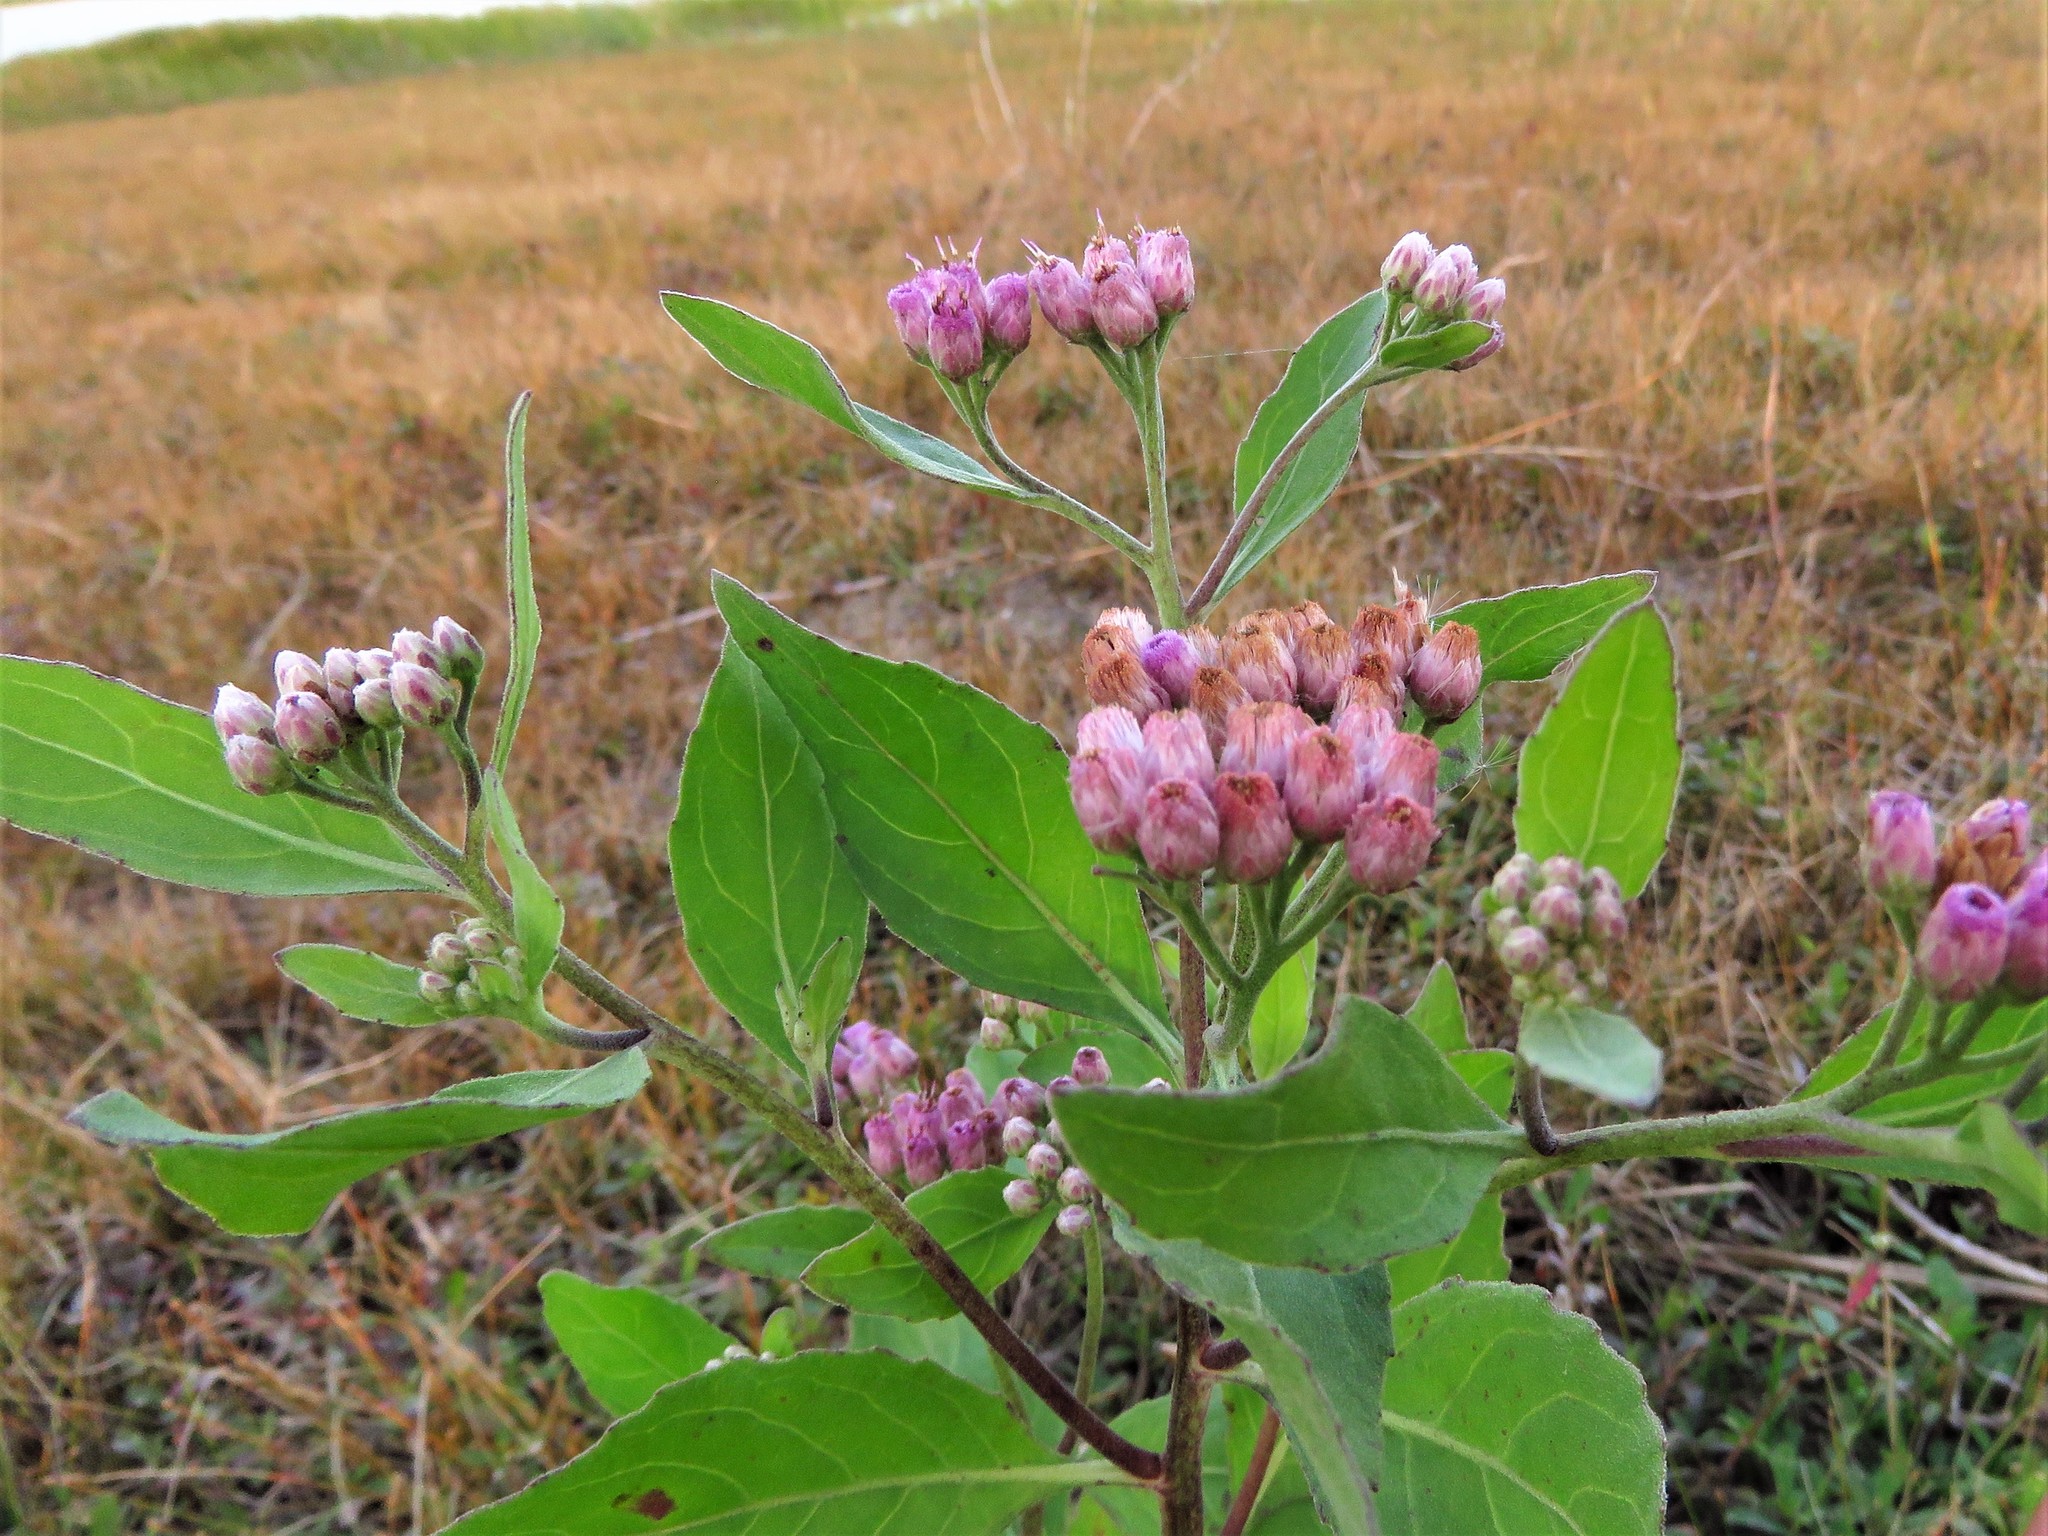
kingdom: Plantae
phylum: Tracheophyta
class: Magnoliopsida
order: Asterales
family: Asteraceae
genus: Pluchea
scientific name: Pluchea odorata
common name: Saltmarsh fleabane
